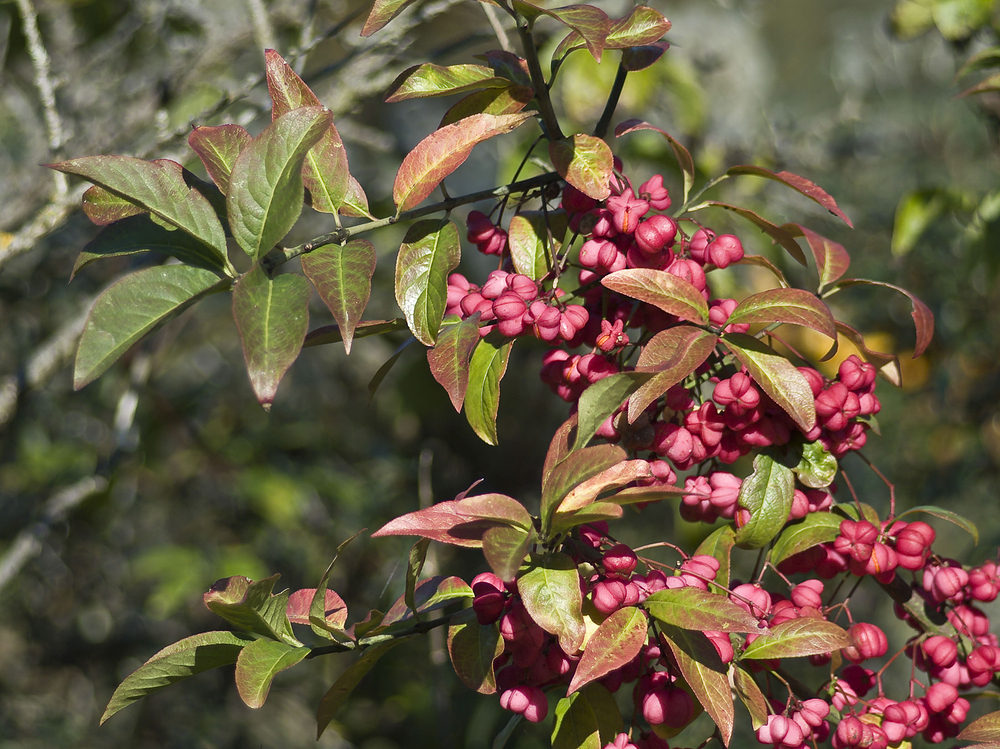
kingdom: Plantae
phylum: Tracheophyta
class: Magnoliopsida
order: Celastrales
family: Celastraceae
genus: Euonymus
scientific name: Euonymus europaeus
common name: Spindle
